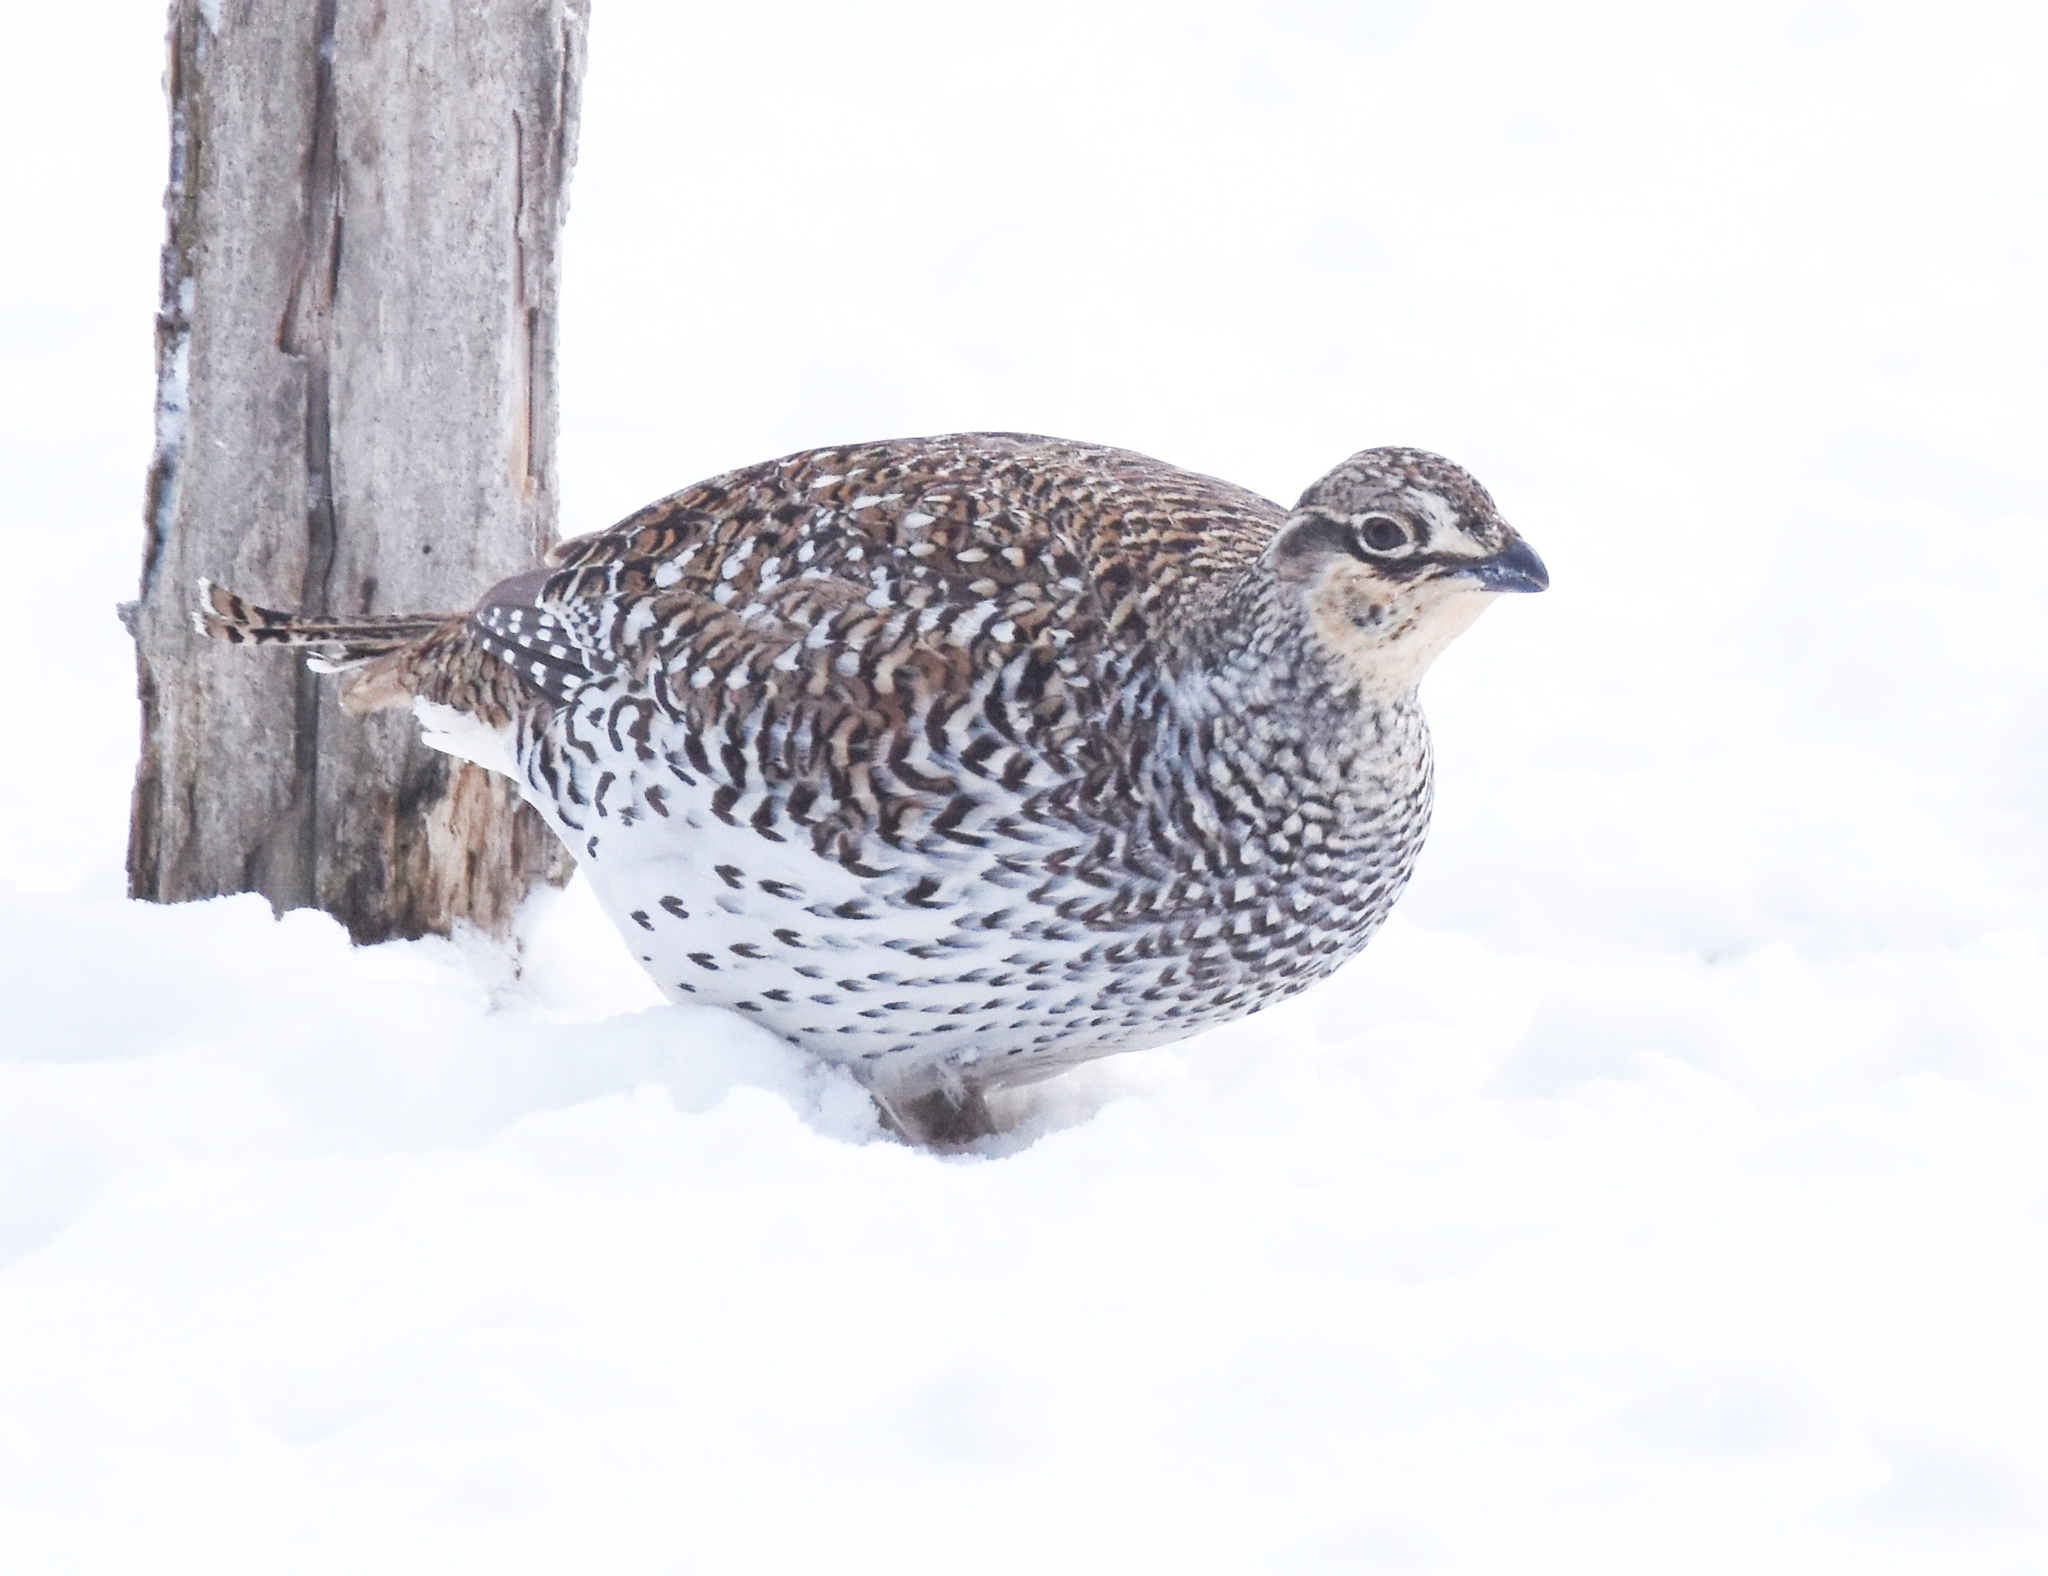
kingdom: Animalia
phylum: Chordata
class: Aves
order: Galliformes
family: Phasianidae
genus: Tympanuchus
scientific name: Tympanuchus phasianellus
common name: Sharp-tailed grouse
